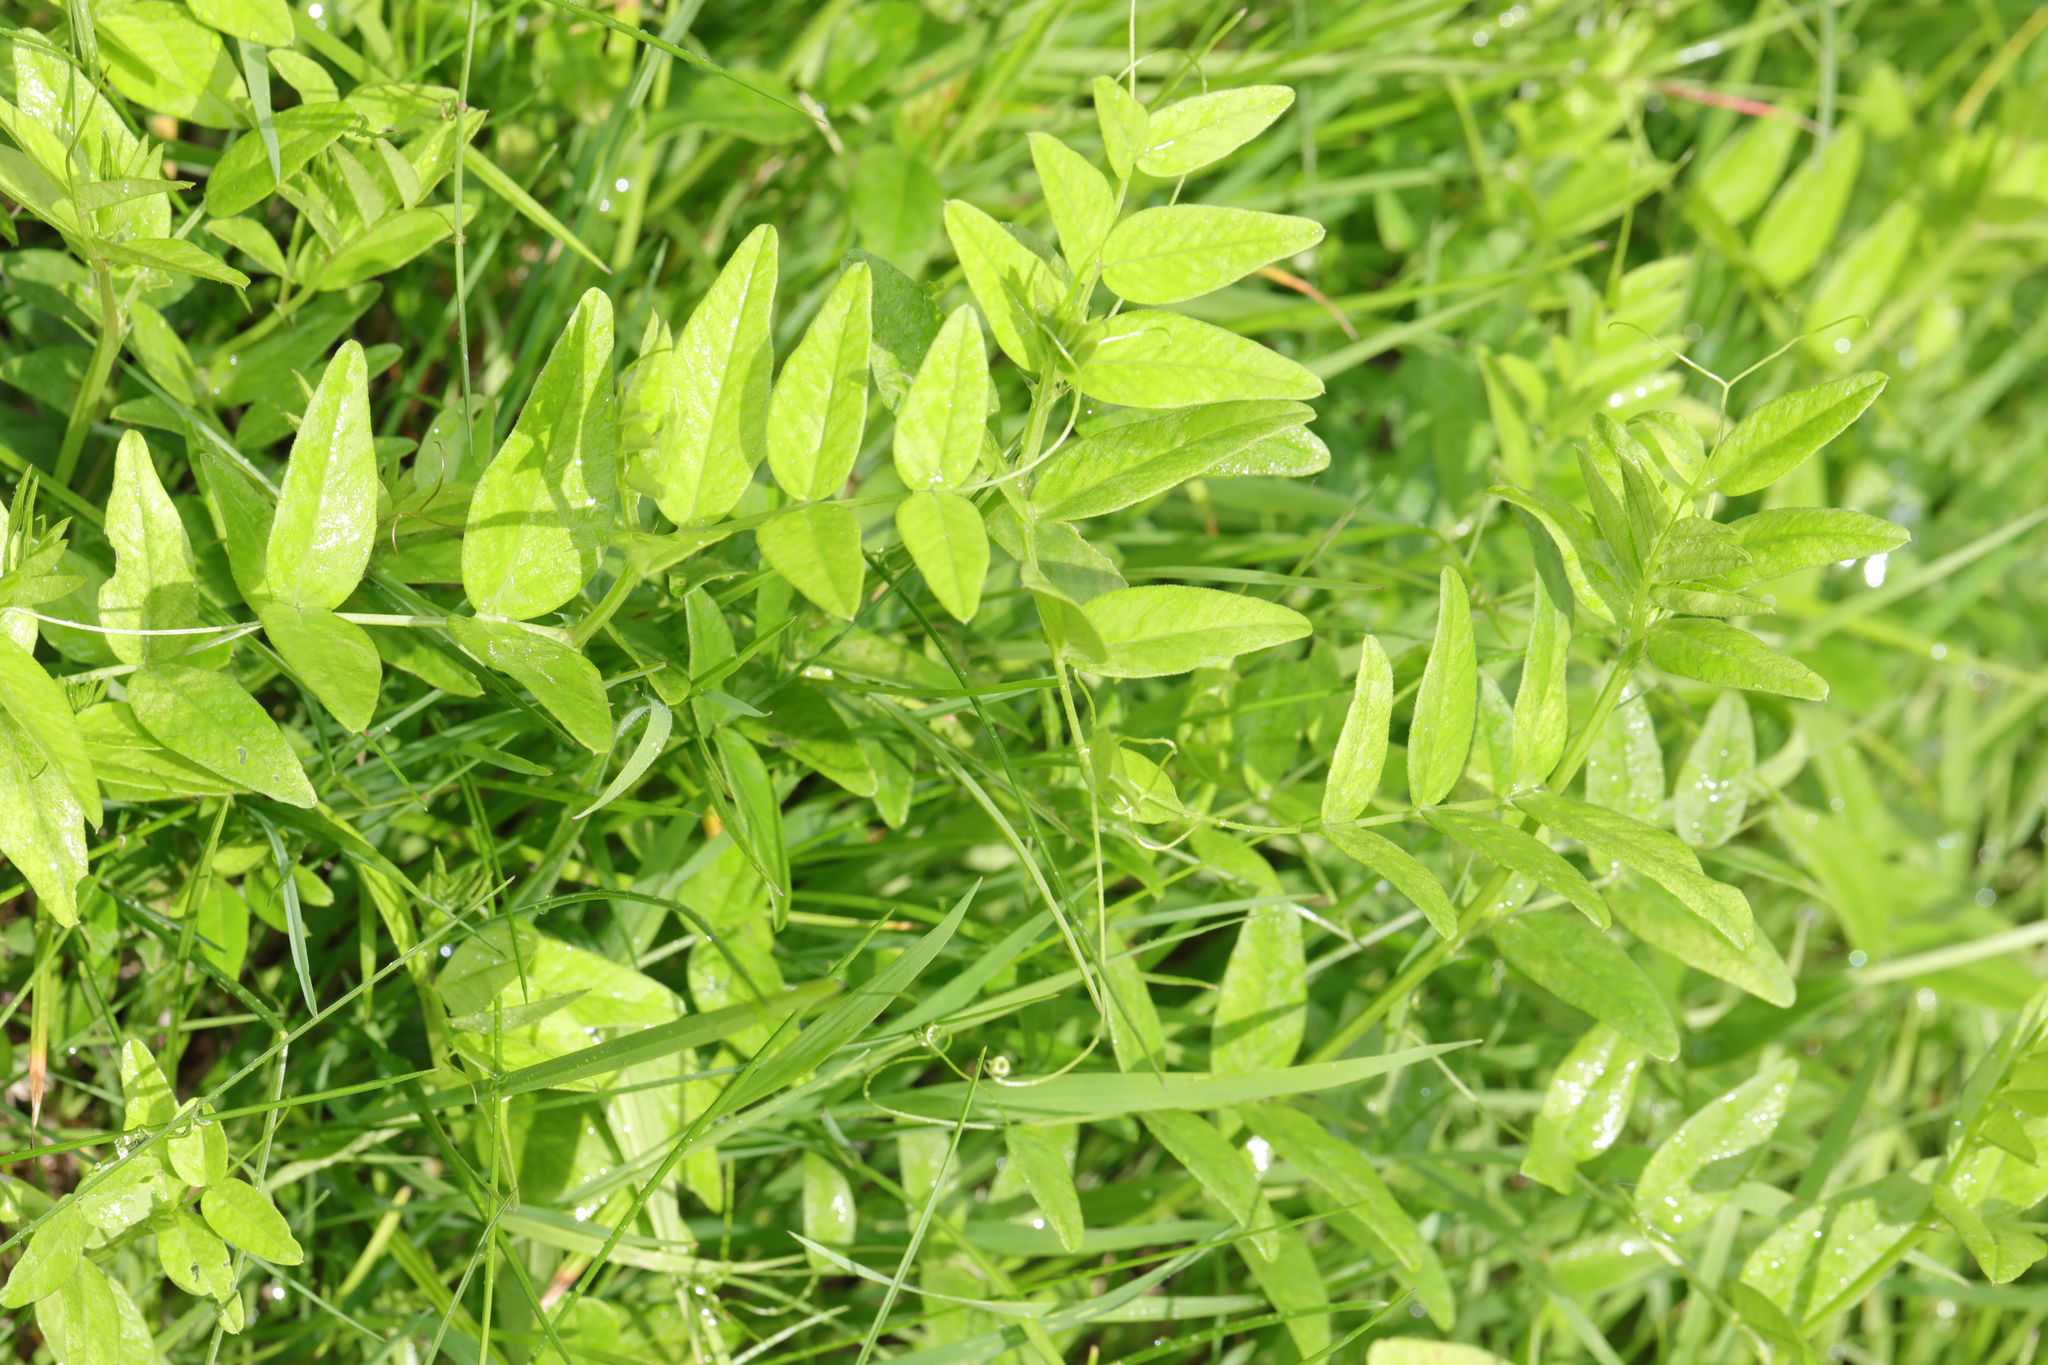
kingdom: Plantae
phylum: Tracheophyta
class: Magnoliopsida
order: Fabales
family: Fabaceae
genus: Vicia
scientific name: Vicia sepium
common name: Bush vetch
